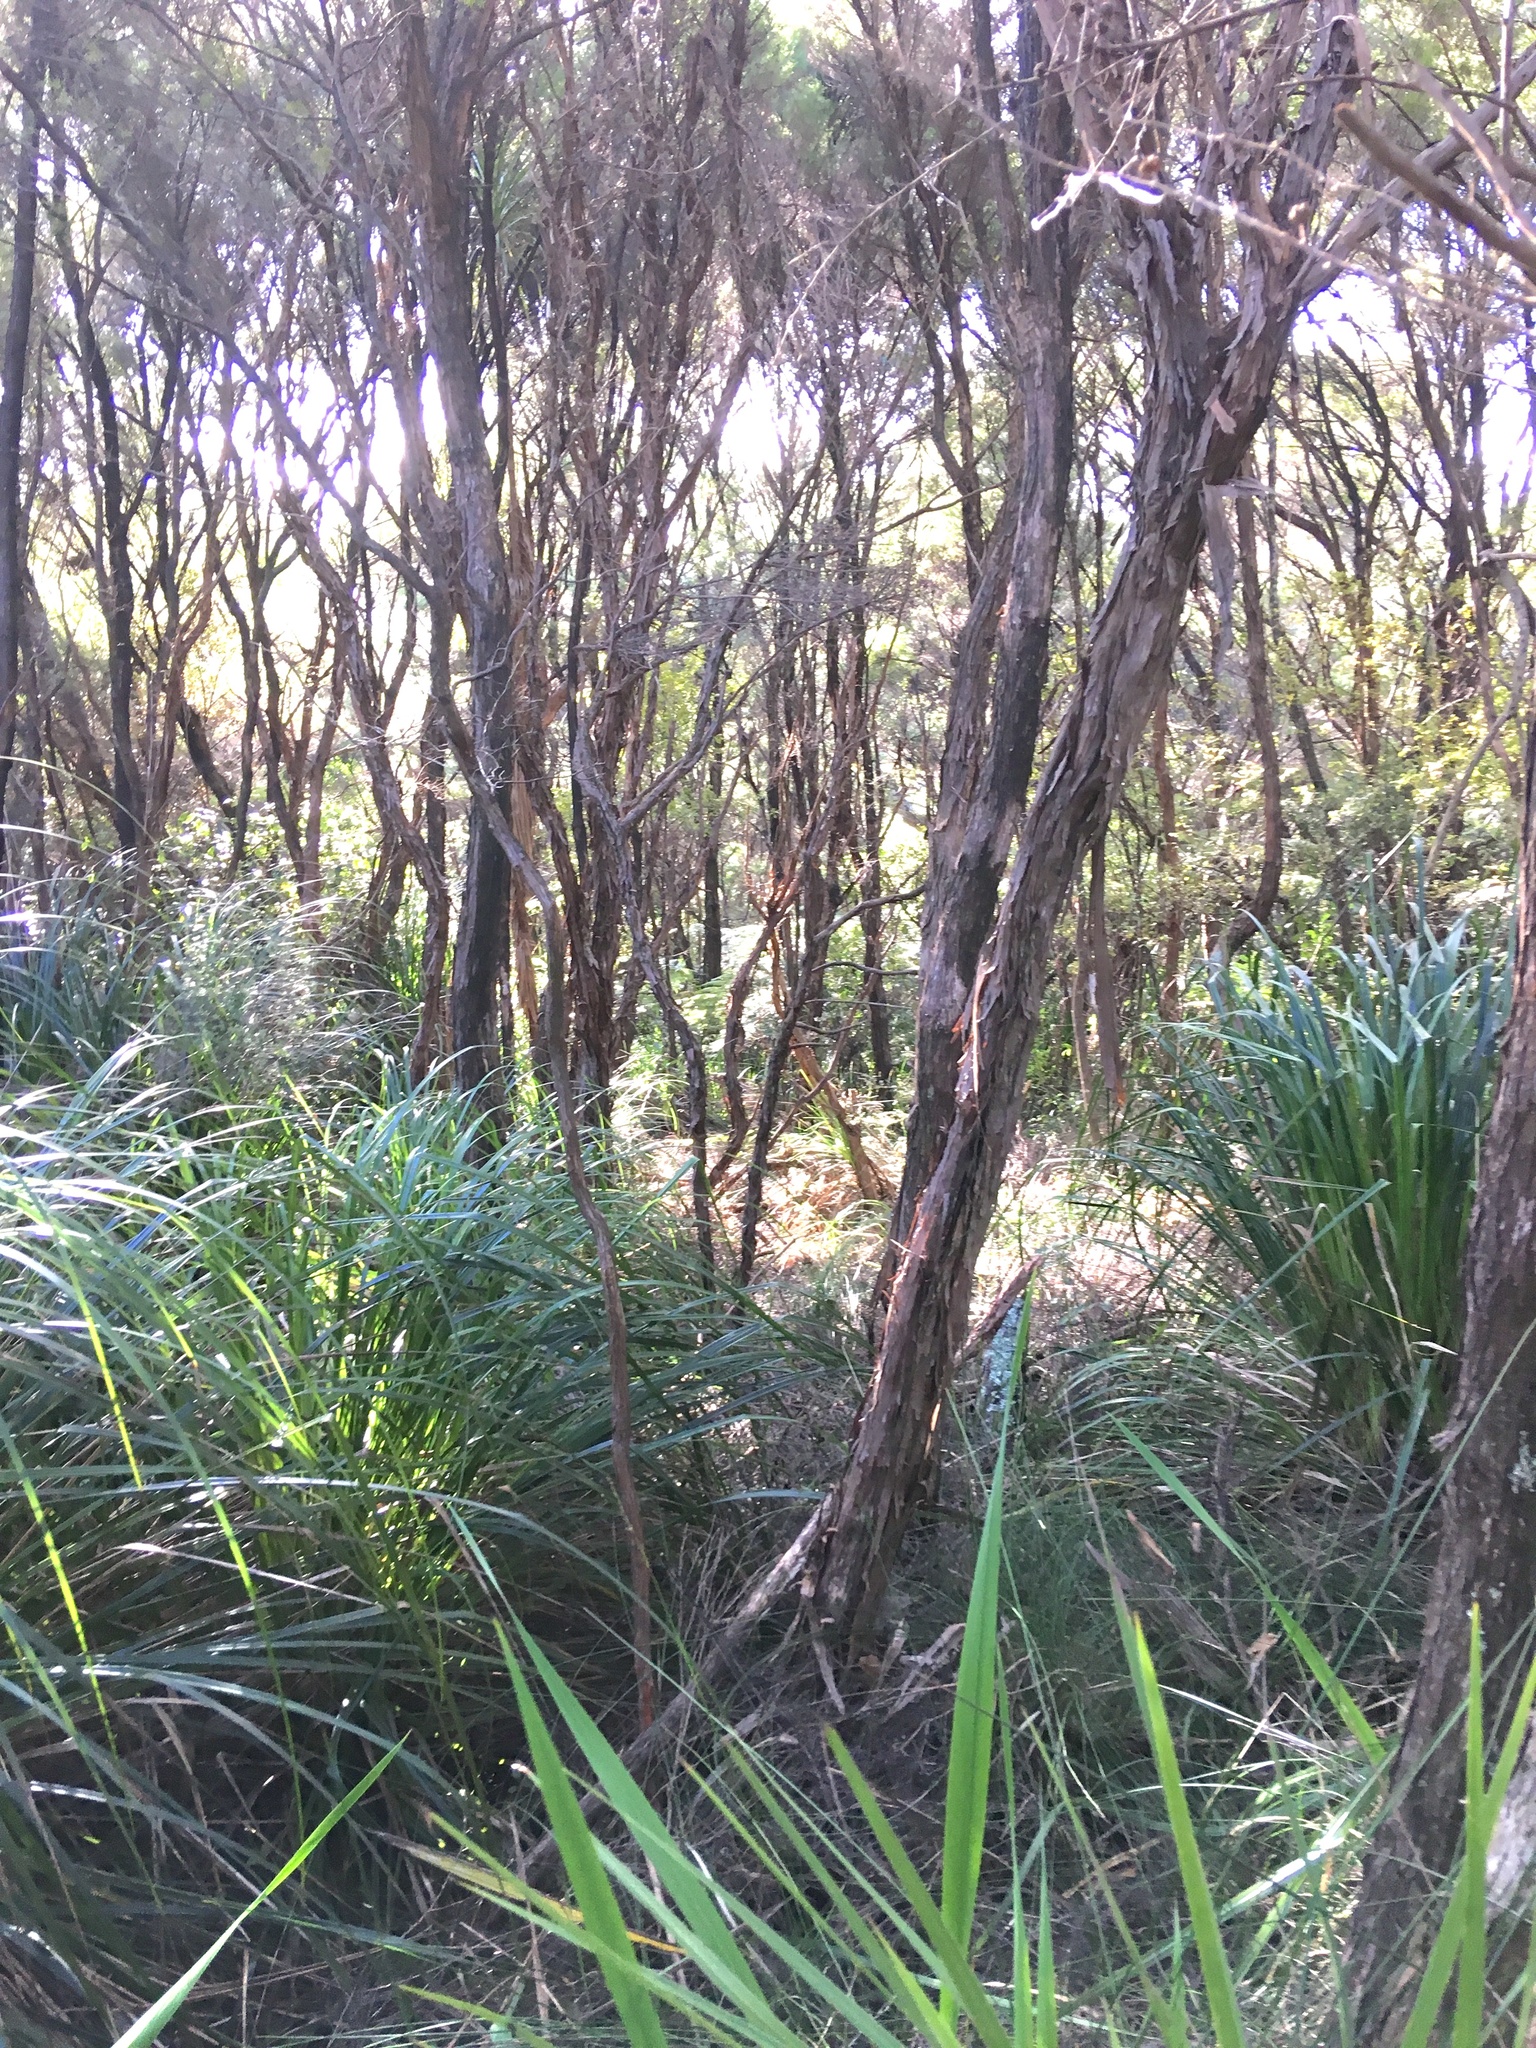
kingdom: Plantae
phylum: Tracheophyta
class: Magnoliopsida
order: Myrtales
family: Myrtaceae
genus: Leptospermum
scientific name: Leptospermum scoparium
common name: Broom tea-tree
